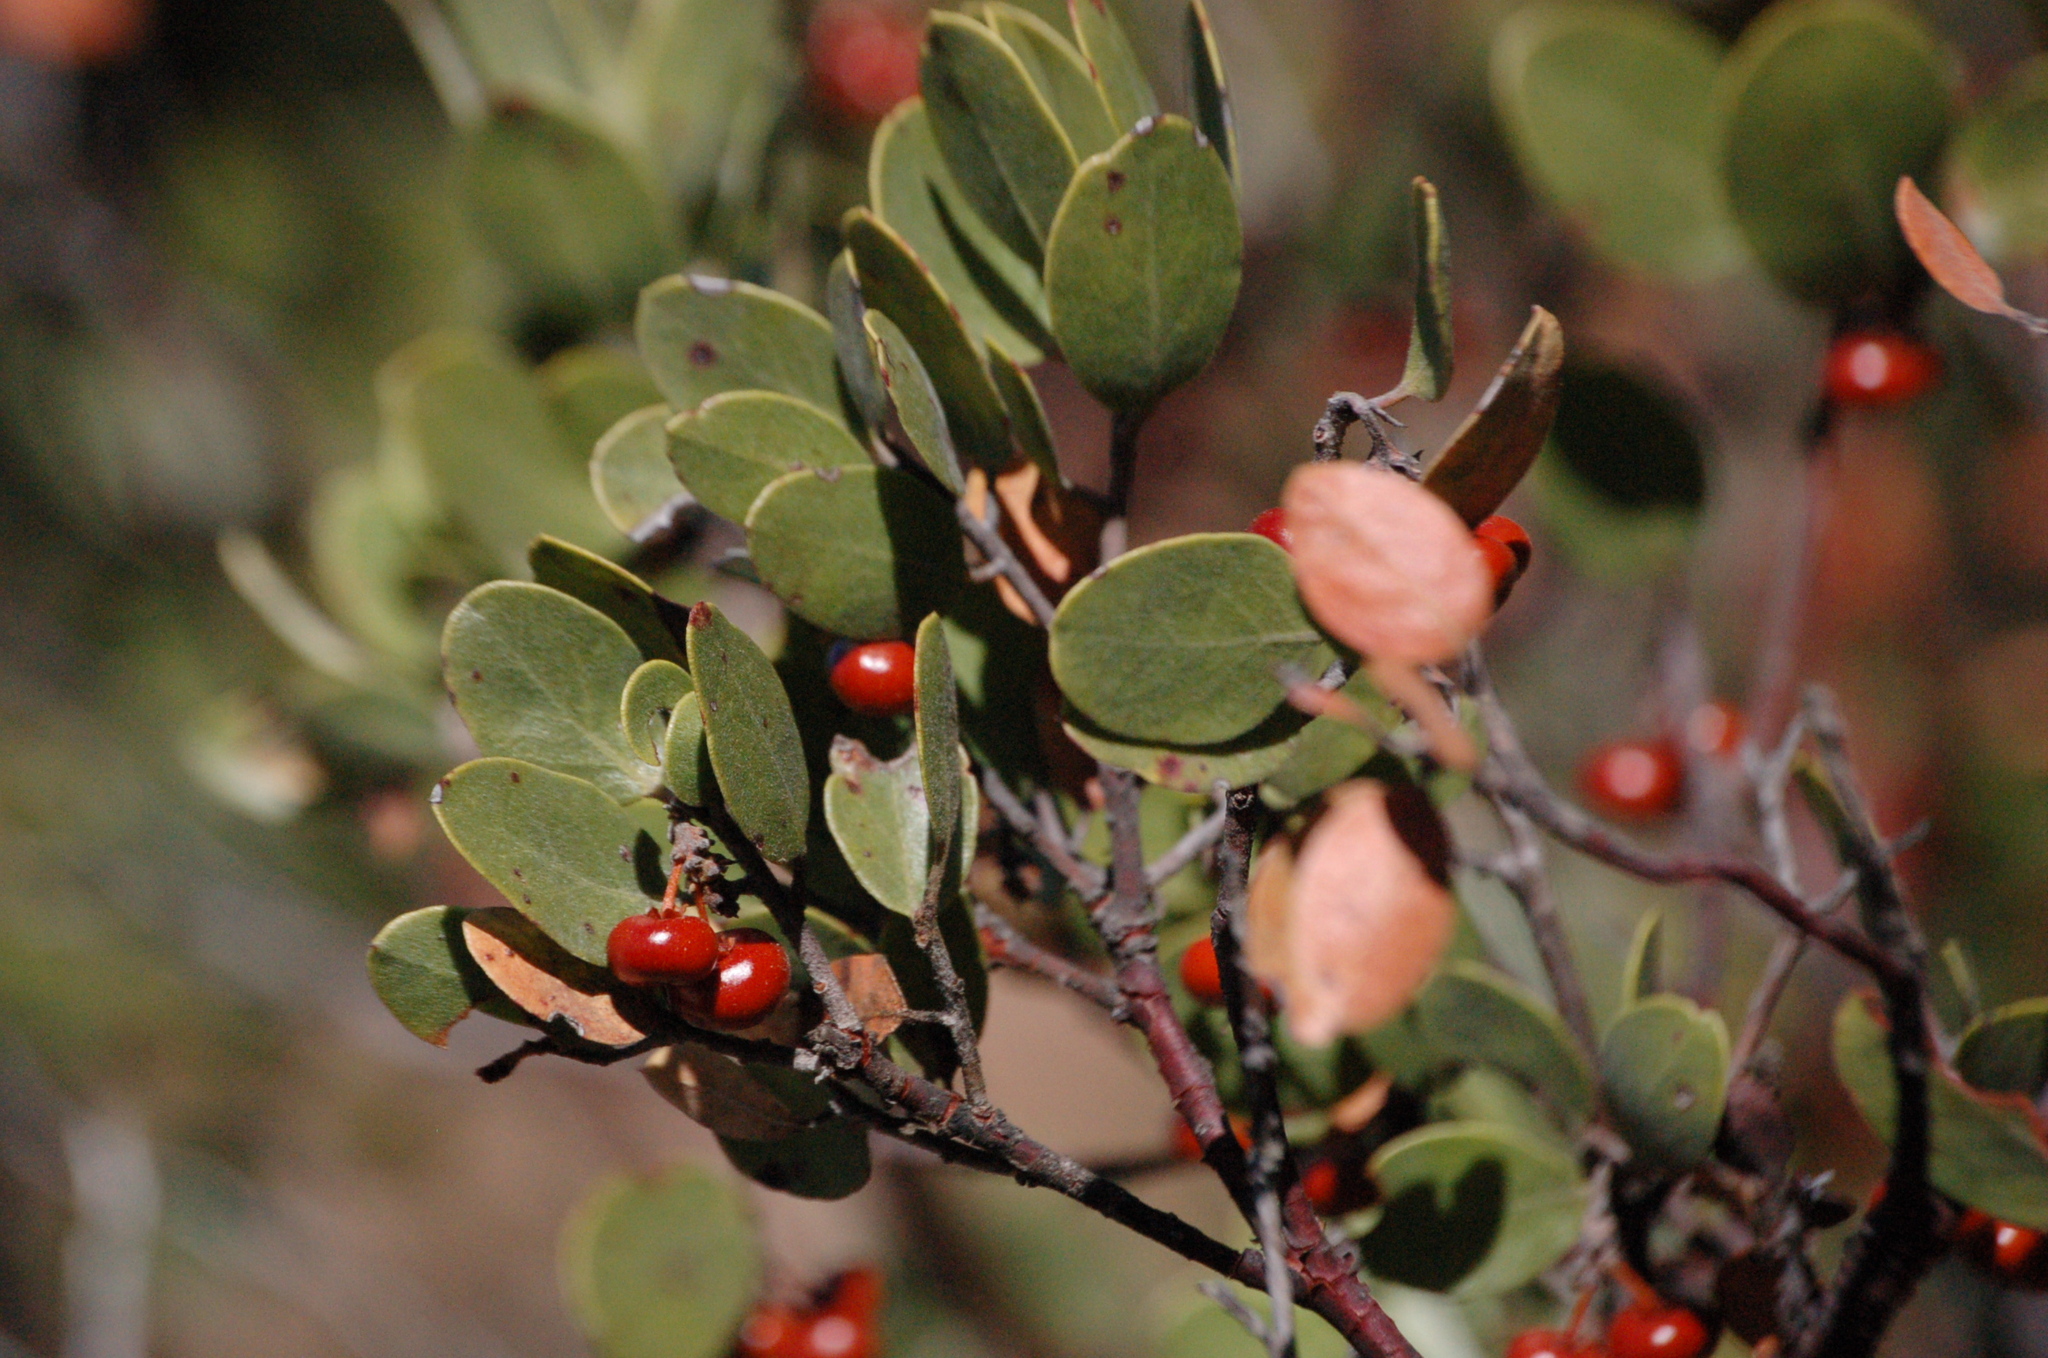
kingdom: Plantae
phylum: Tracheophyta
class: Magnoliopsida
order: Ericales
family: Ericaceae
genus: Arctostaphylos
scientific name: Arctostaphylos pungens
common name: Mexican manzanita
